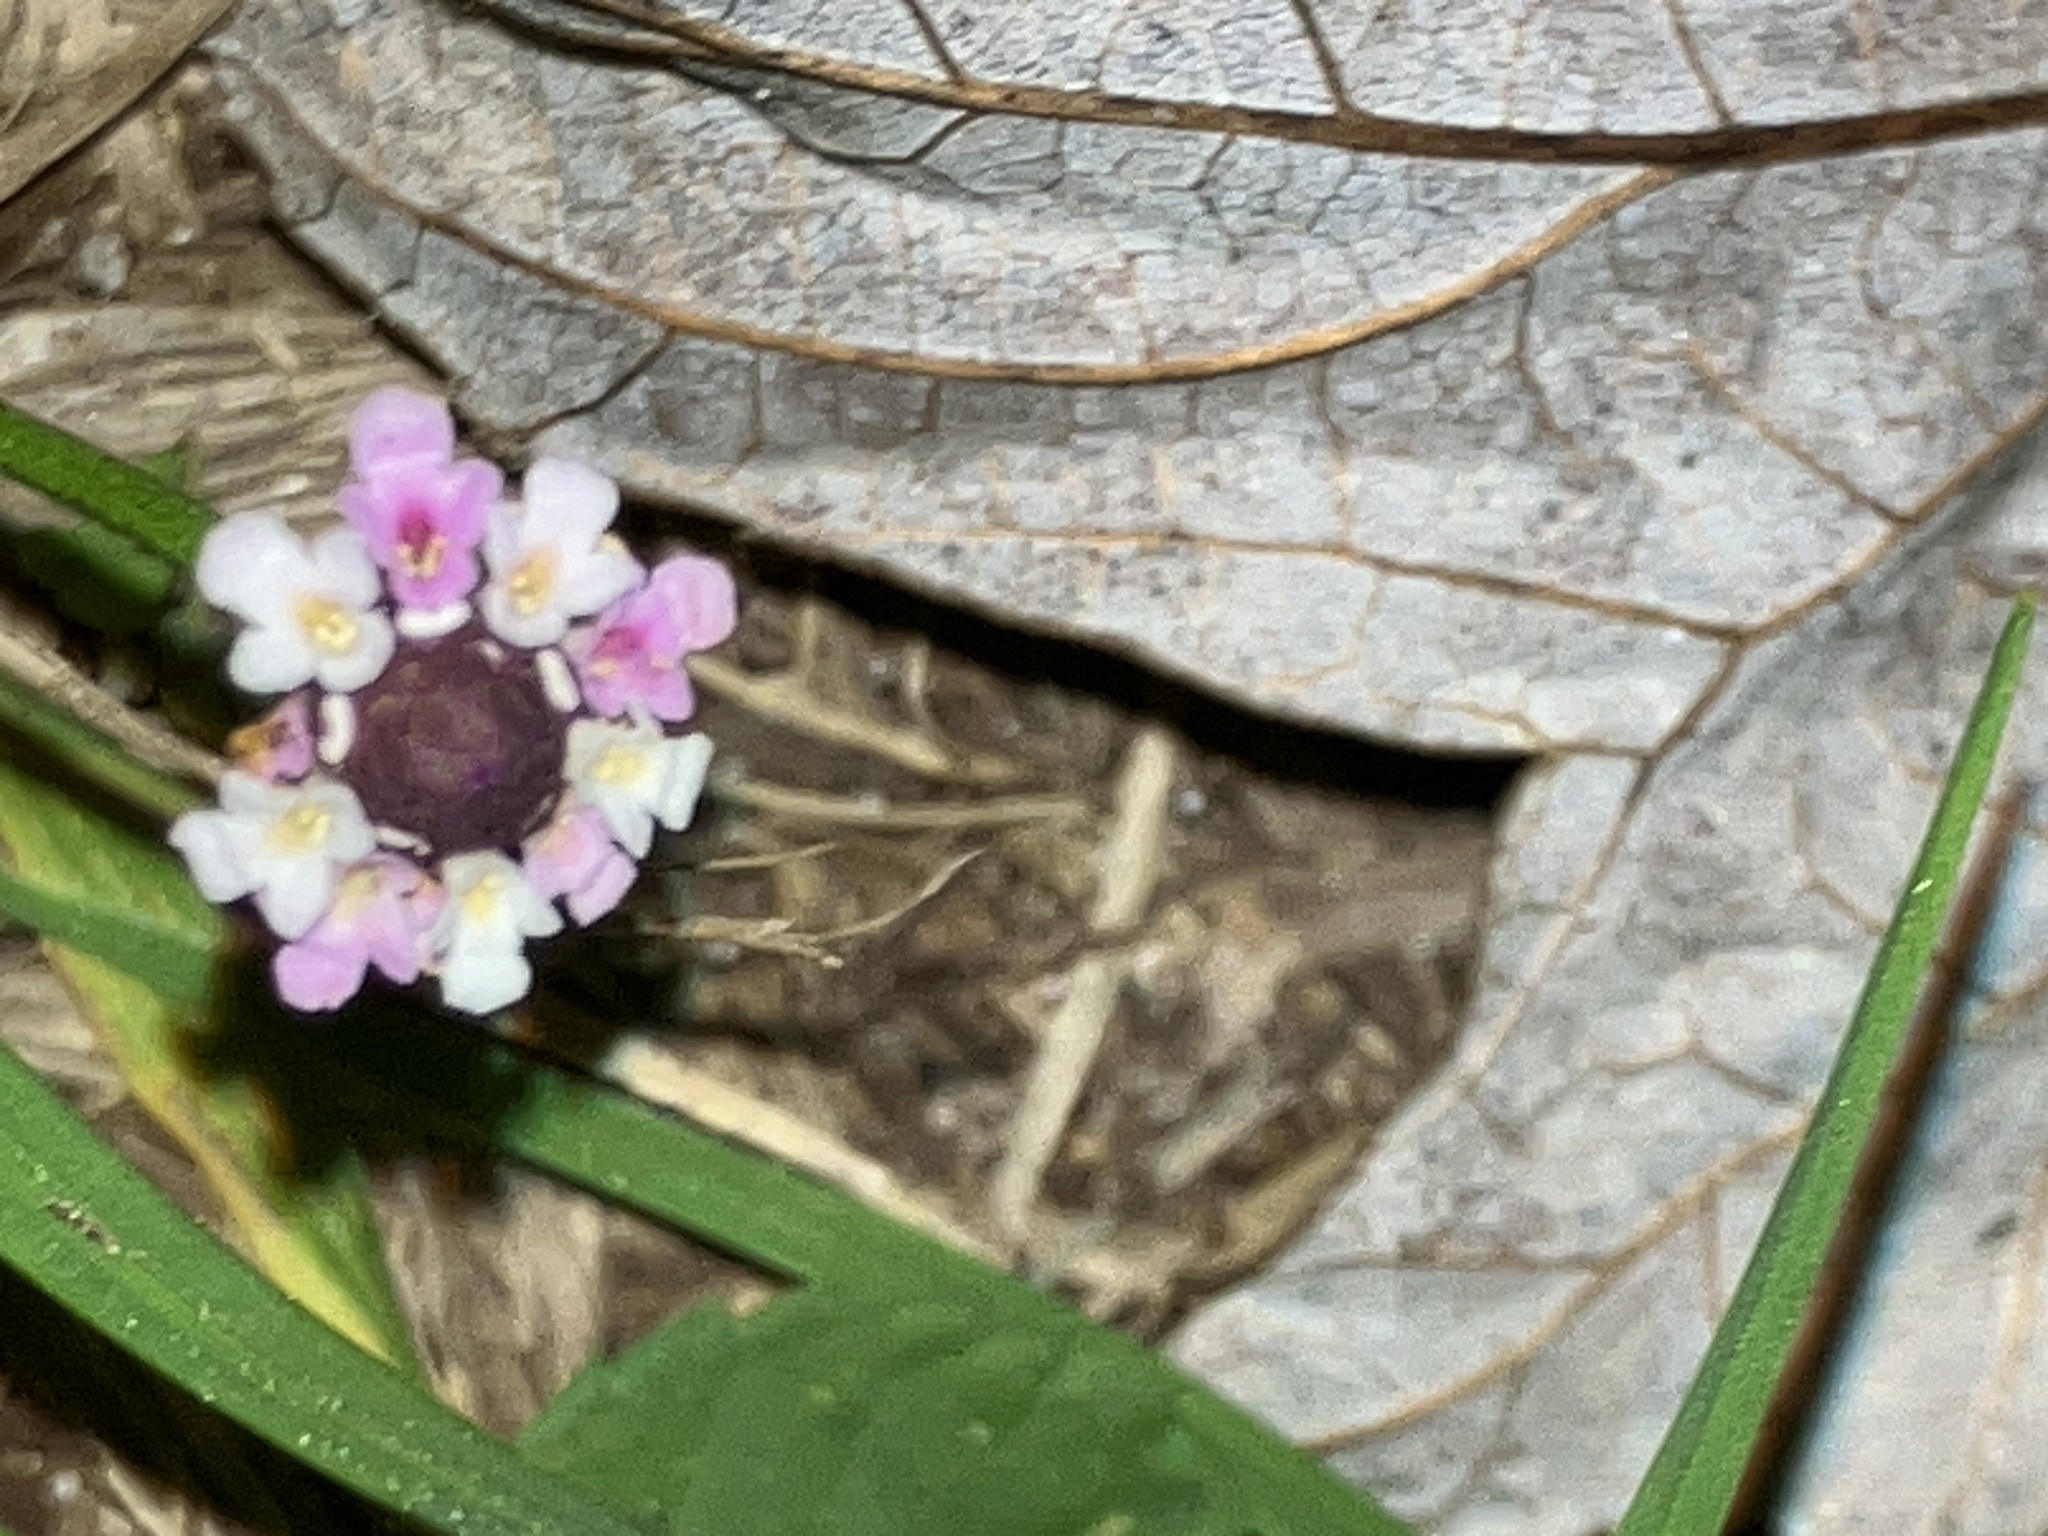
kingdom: Plantae
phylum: Tracheophyta
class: Magnoliopsida
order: Lamiales
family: Verbenaceae
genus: Phyla
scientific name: Phyla nodiflora
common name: Frogfruit
